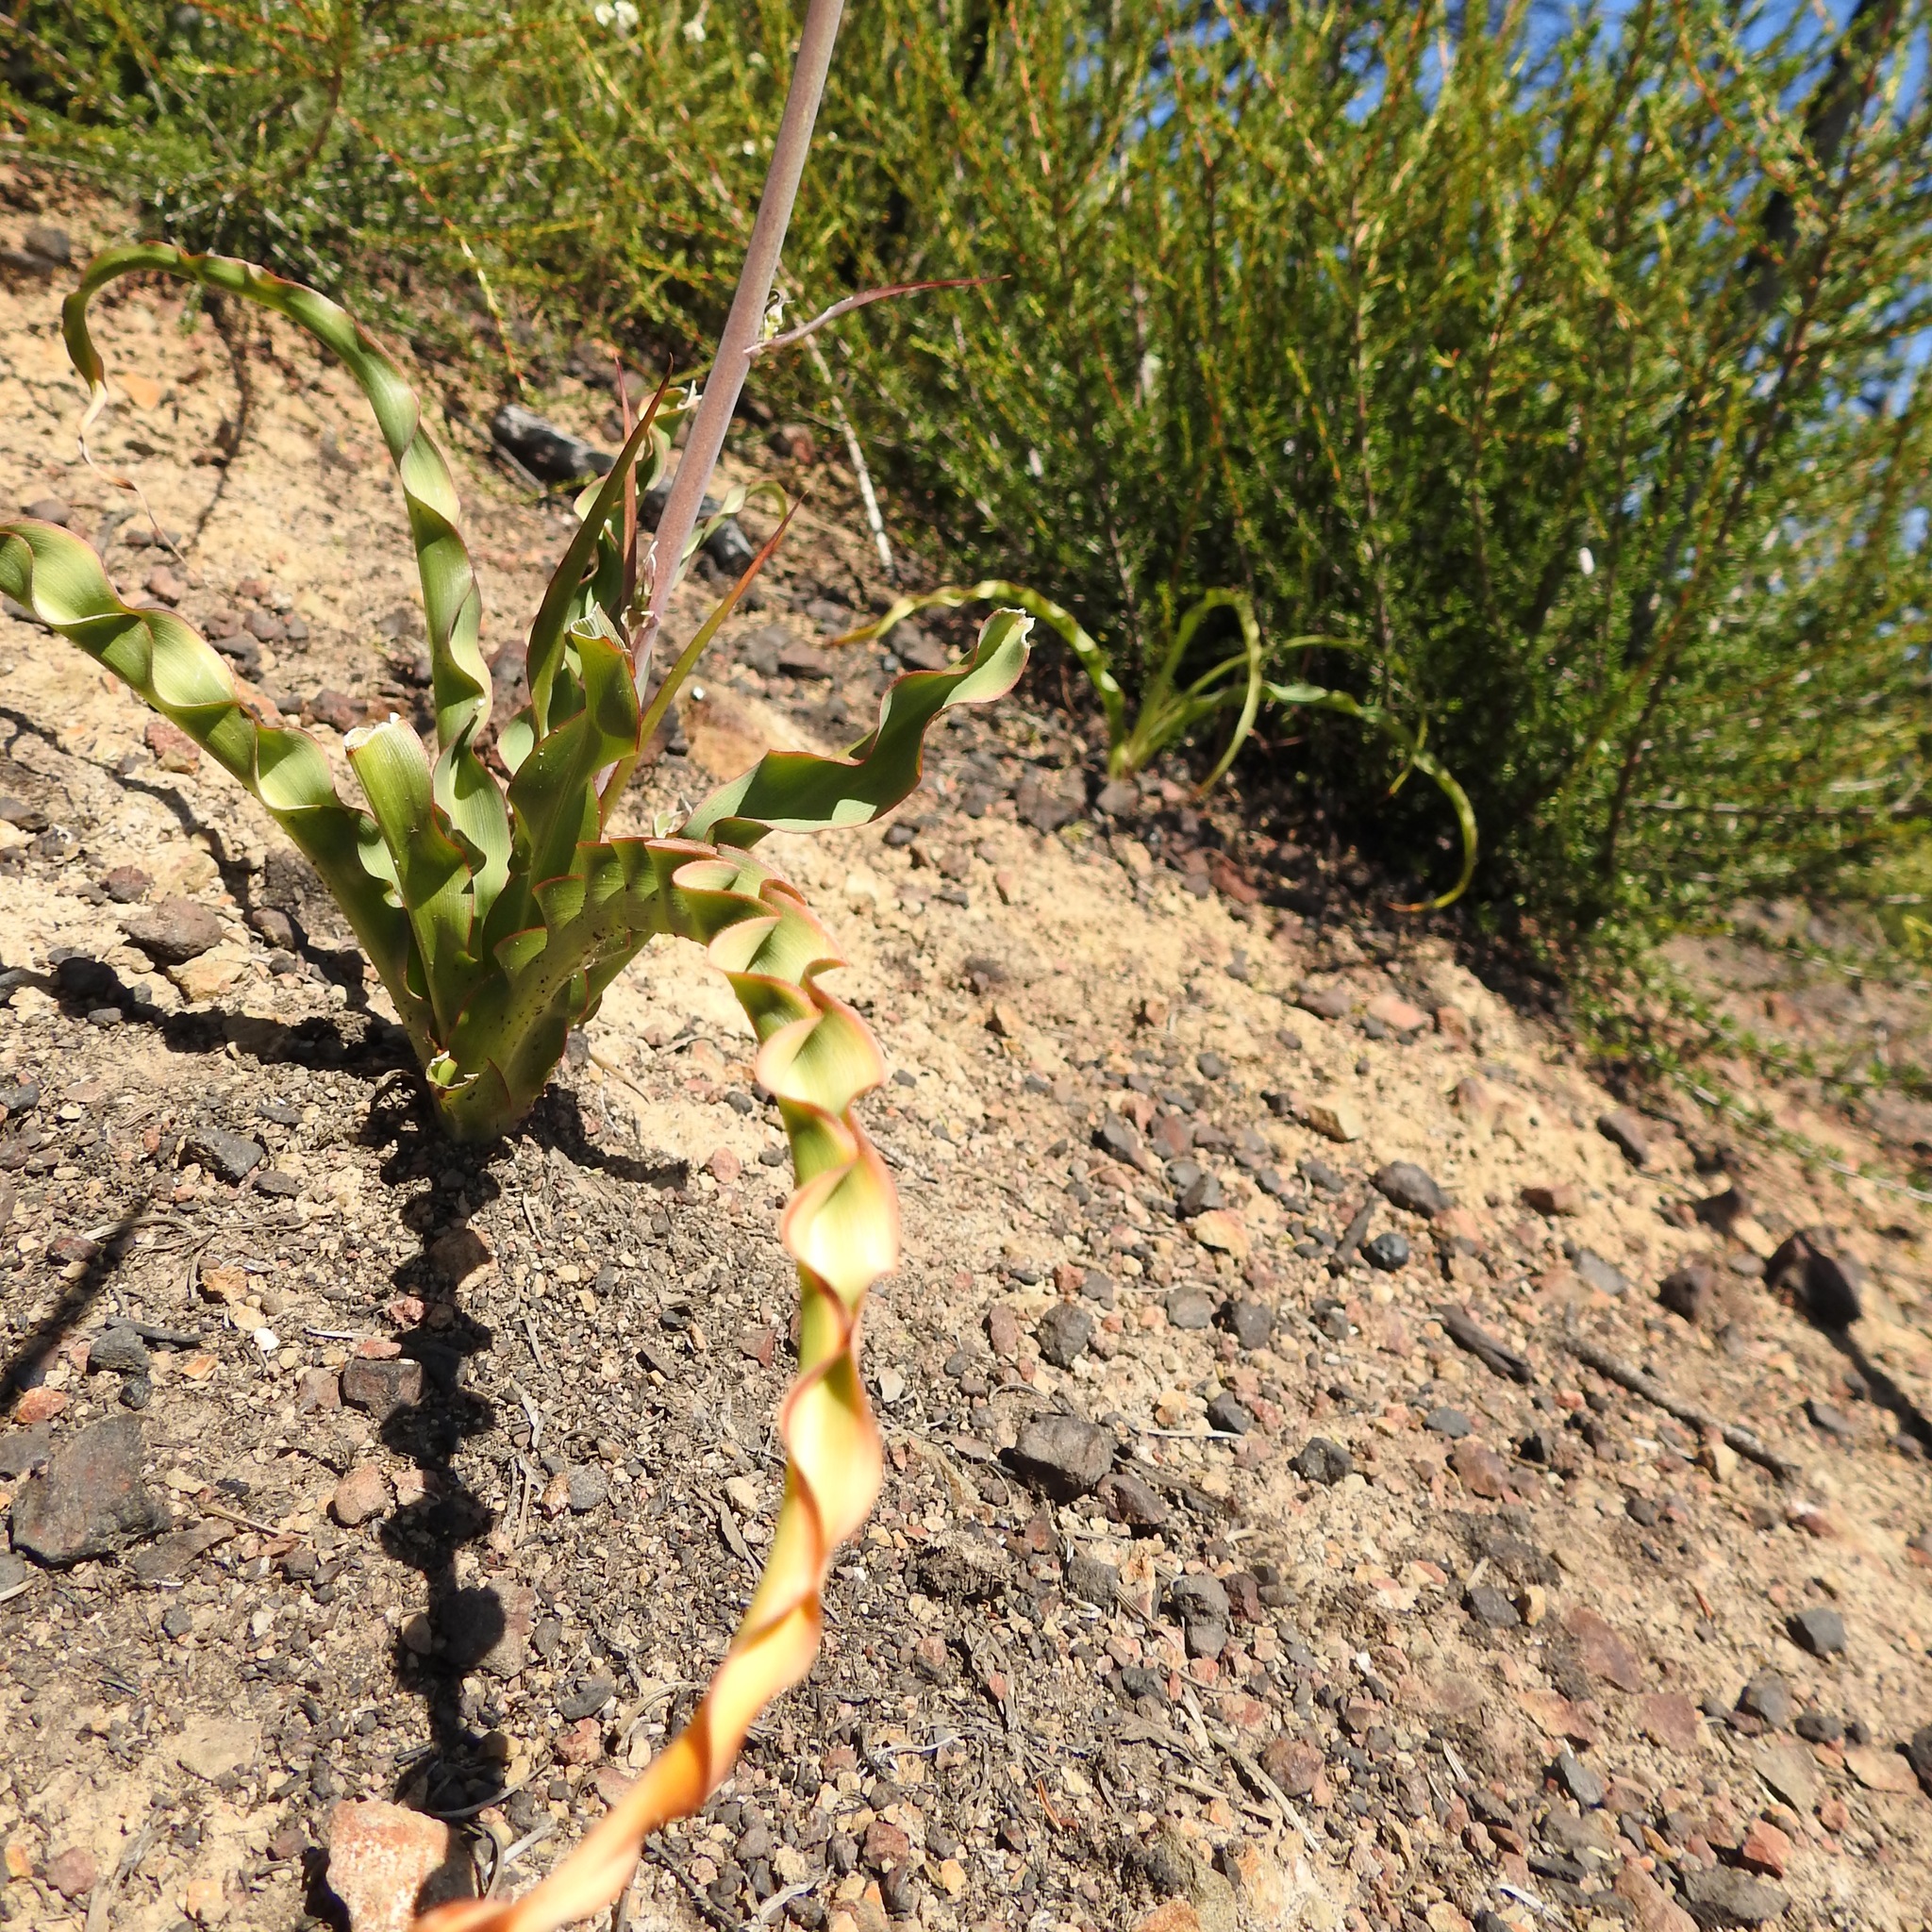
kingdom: Plantae
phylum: Tracheophyta
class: Liliopsida
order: Asparagales
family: Asparagaceae
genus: Chlorogalum
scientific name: Chlorogalum pomeridianum
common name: Amole
